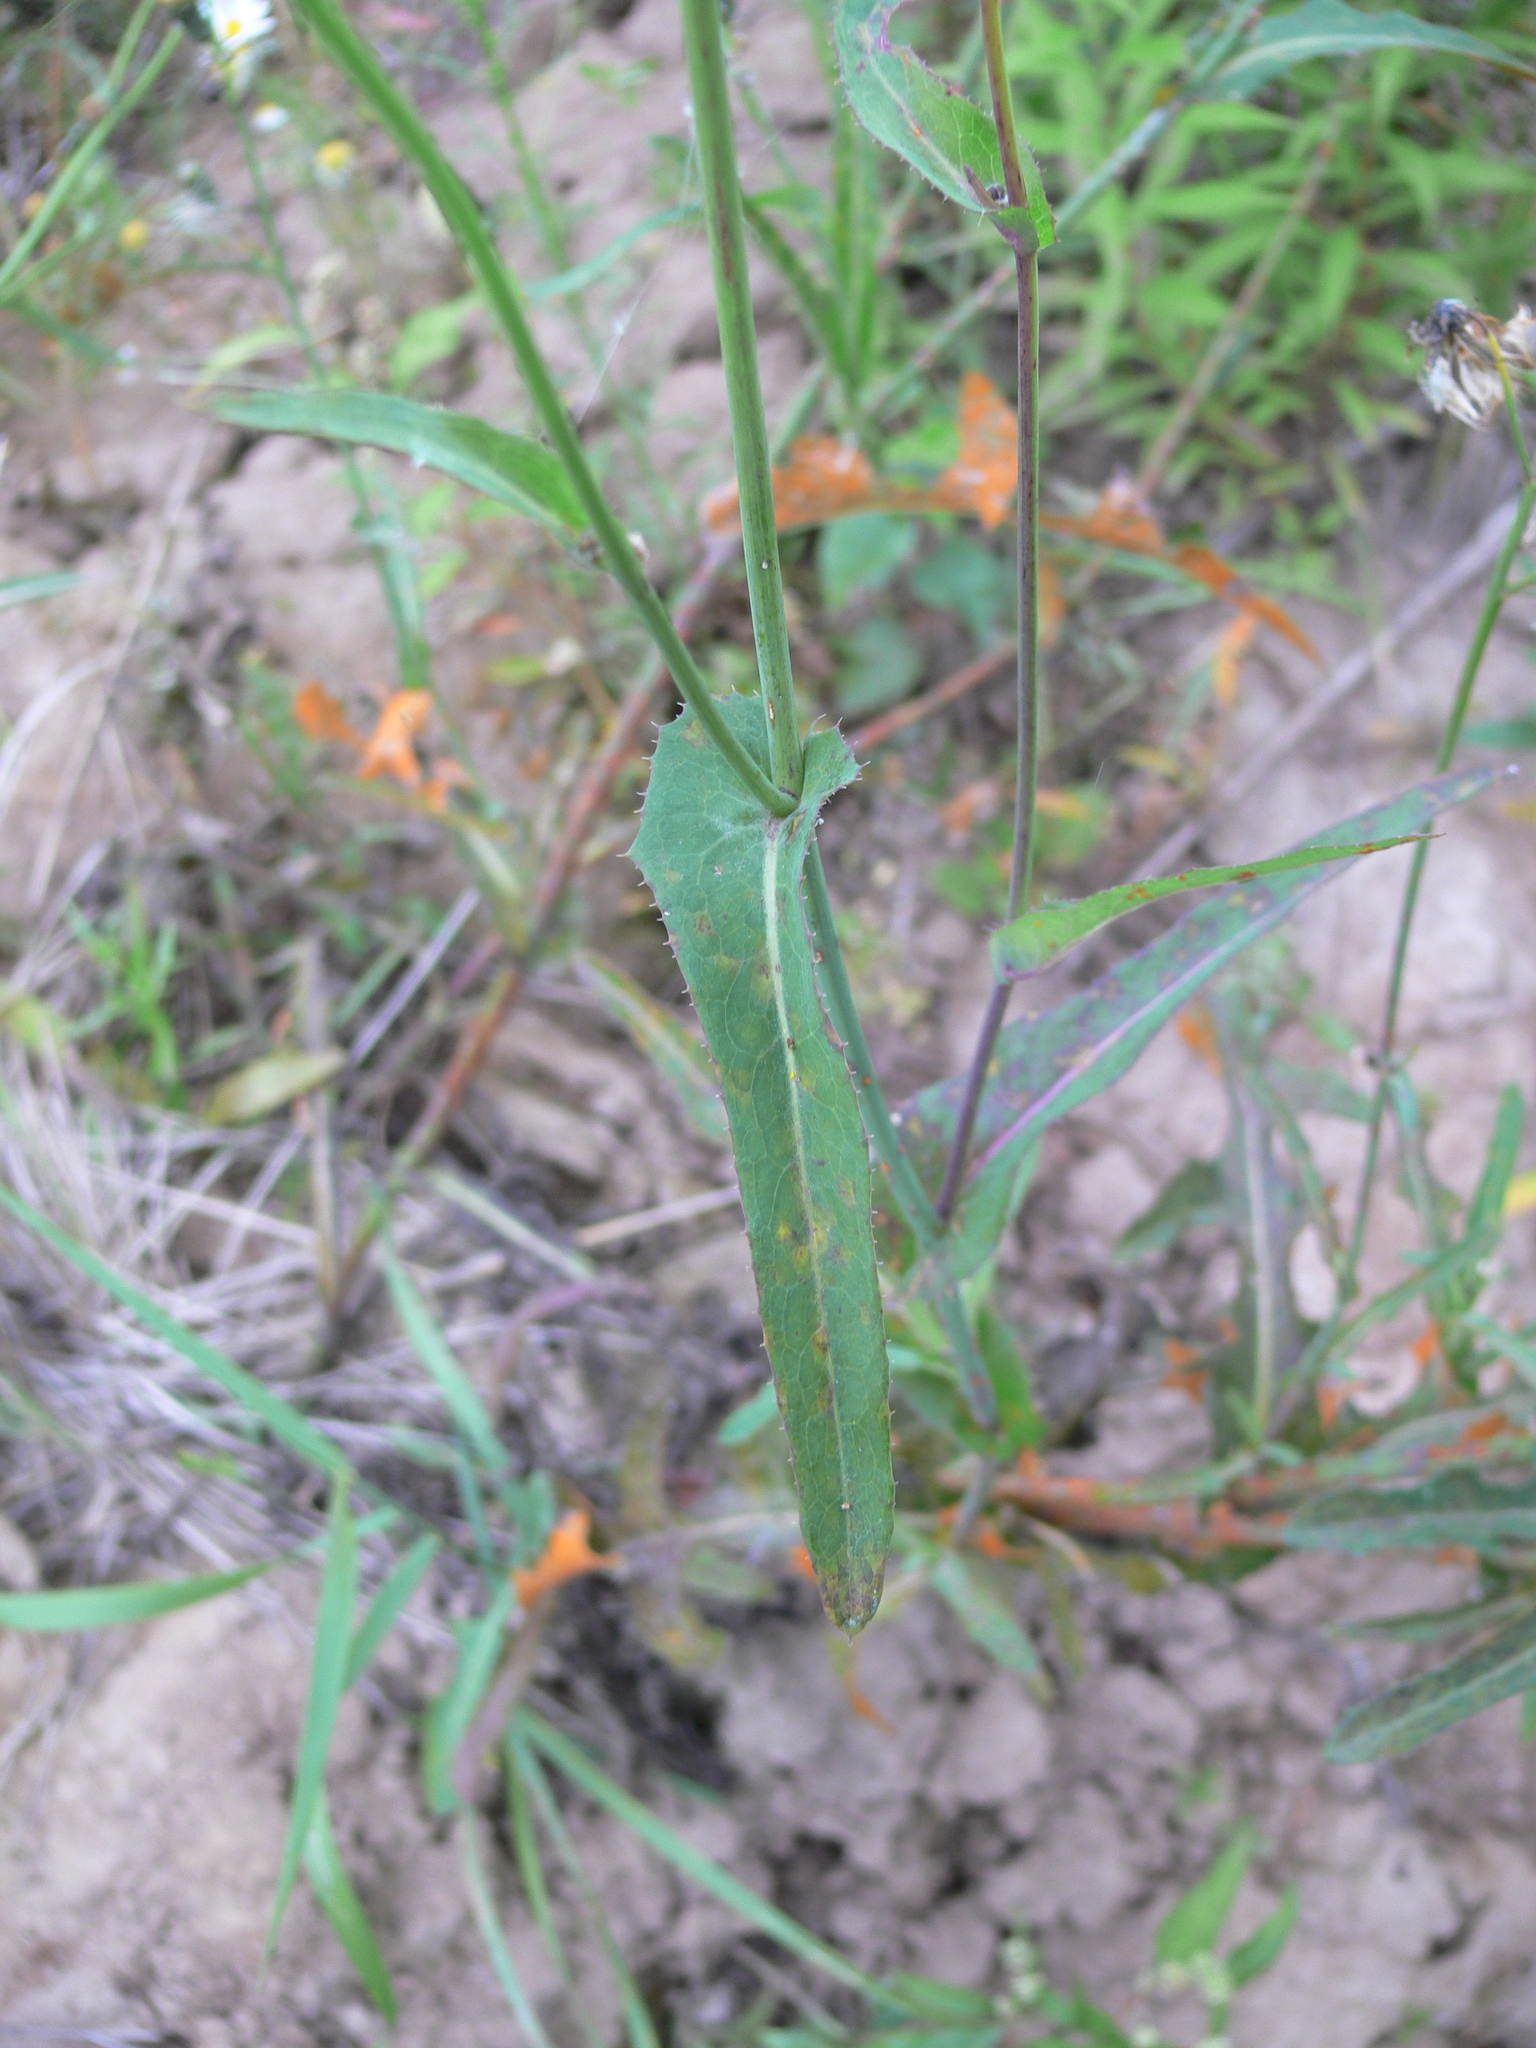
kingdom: Plantae
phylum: Tracheophyta
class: Magnoliopsida
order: Asterales
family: Asteraceae
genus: Sonchus
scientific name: Sonchus arvensis
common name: Perennial sow-thistle
